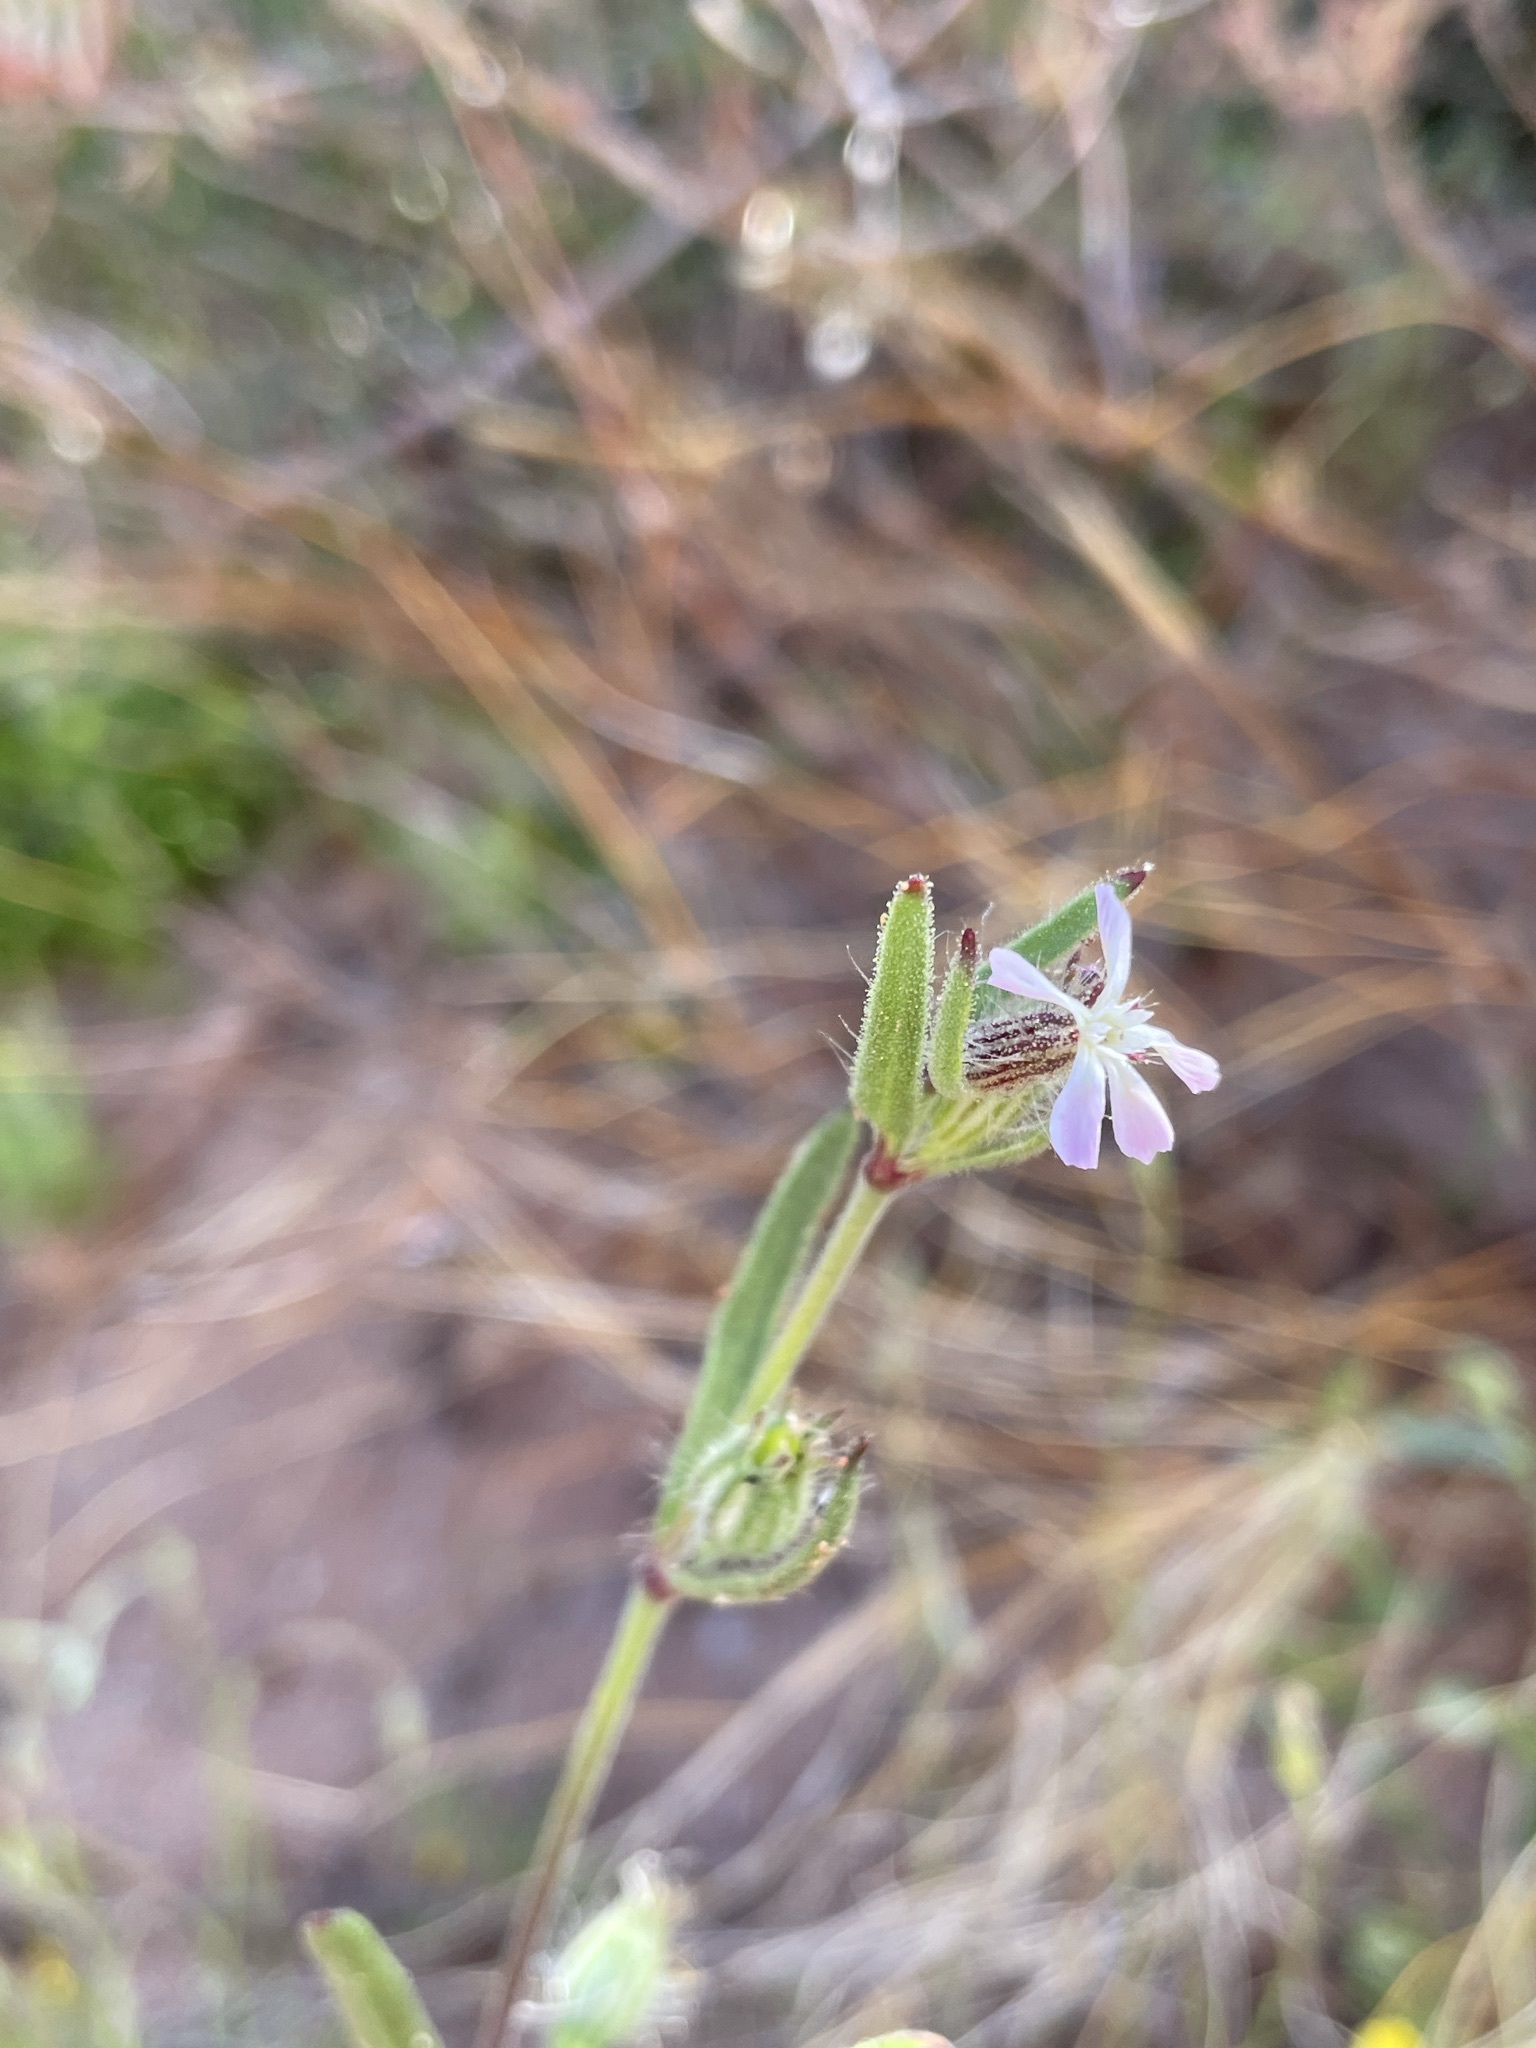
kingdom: Plantae
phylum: Tracheophyta
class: Magnoliopsida
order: Caryophyllales
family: Caryophyllaceae
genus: Silene
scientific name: Silene gallica
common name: Small-flowered catchfly
